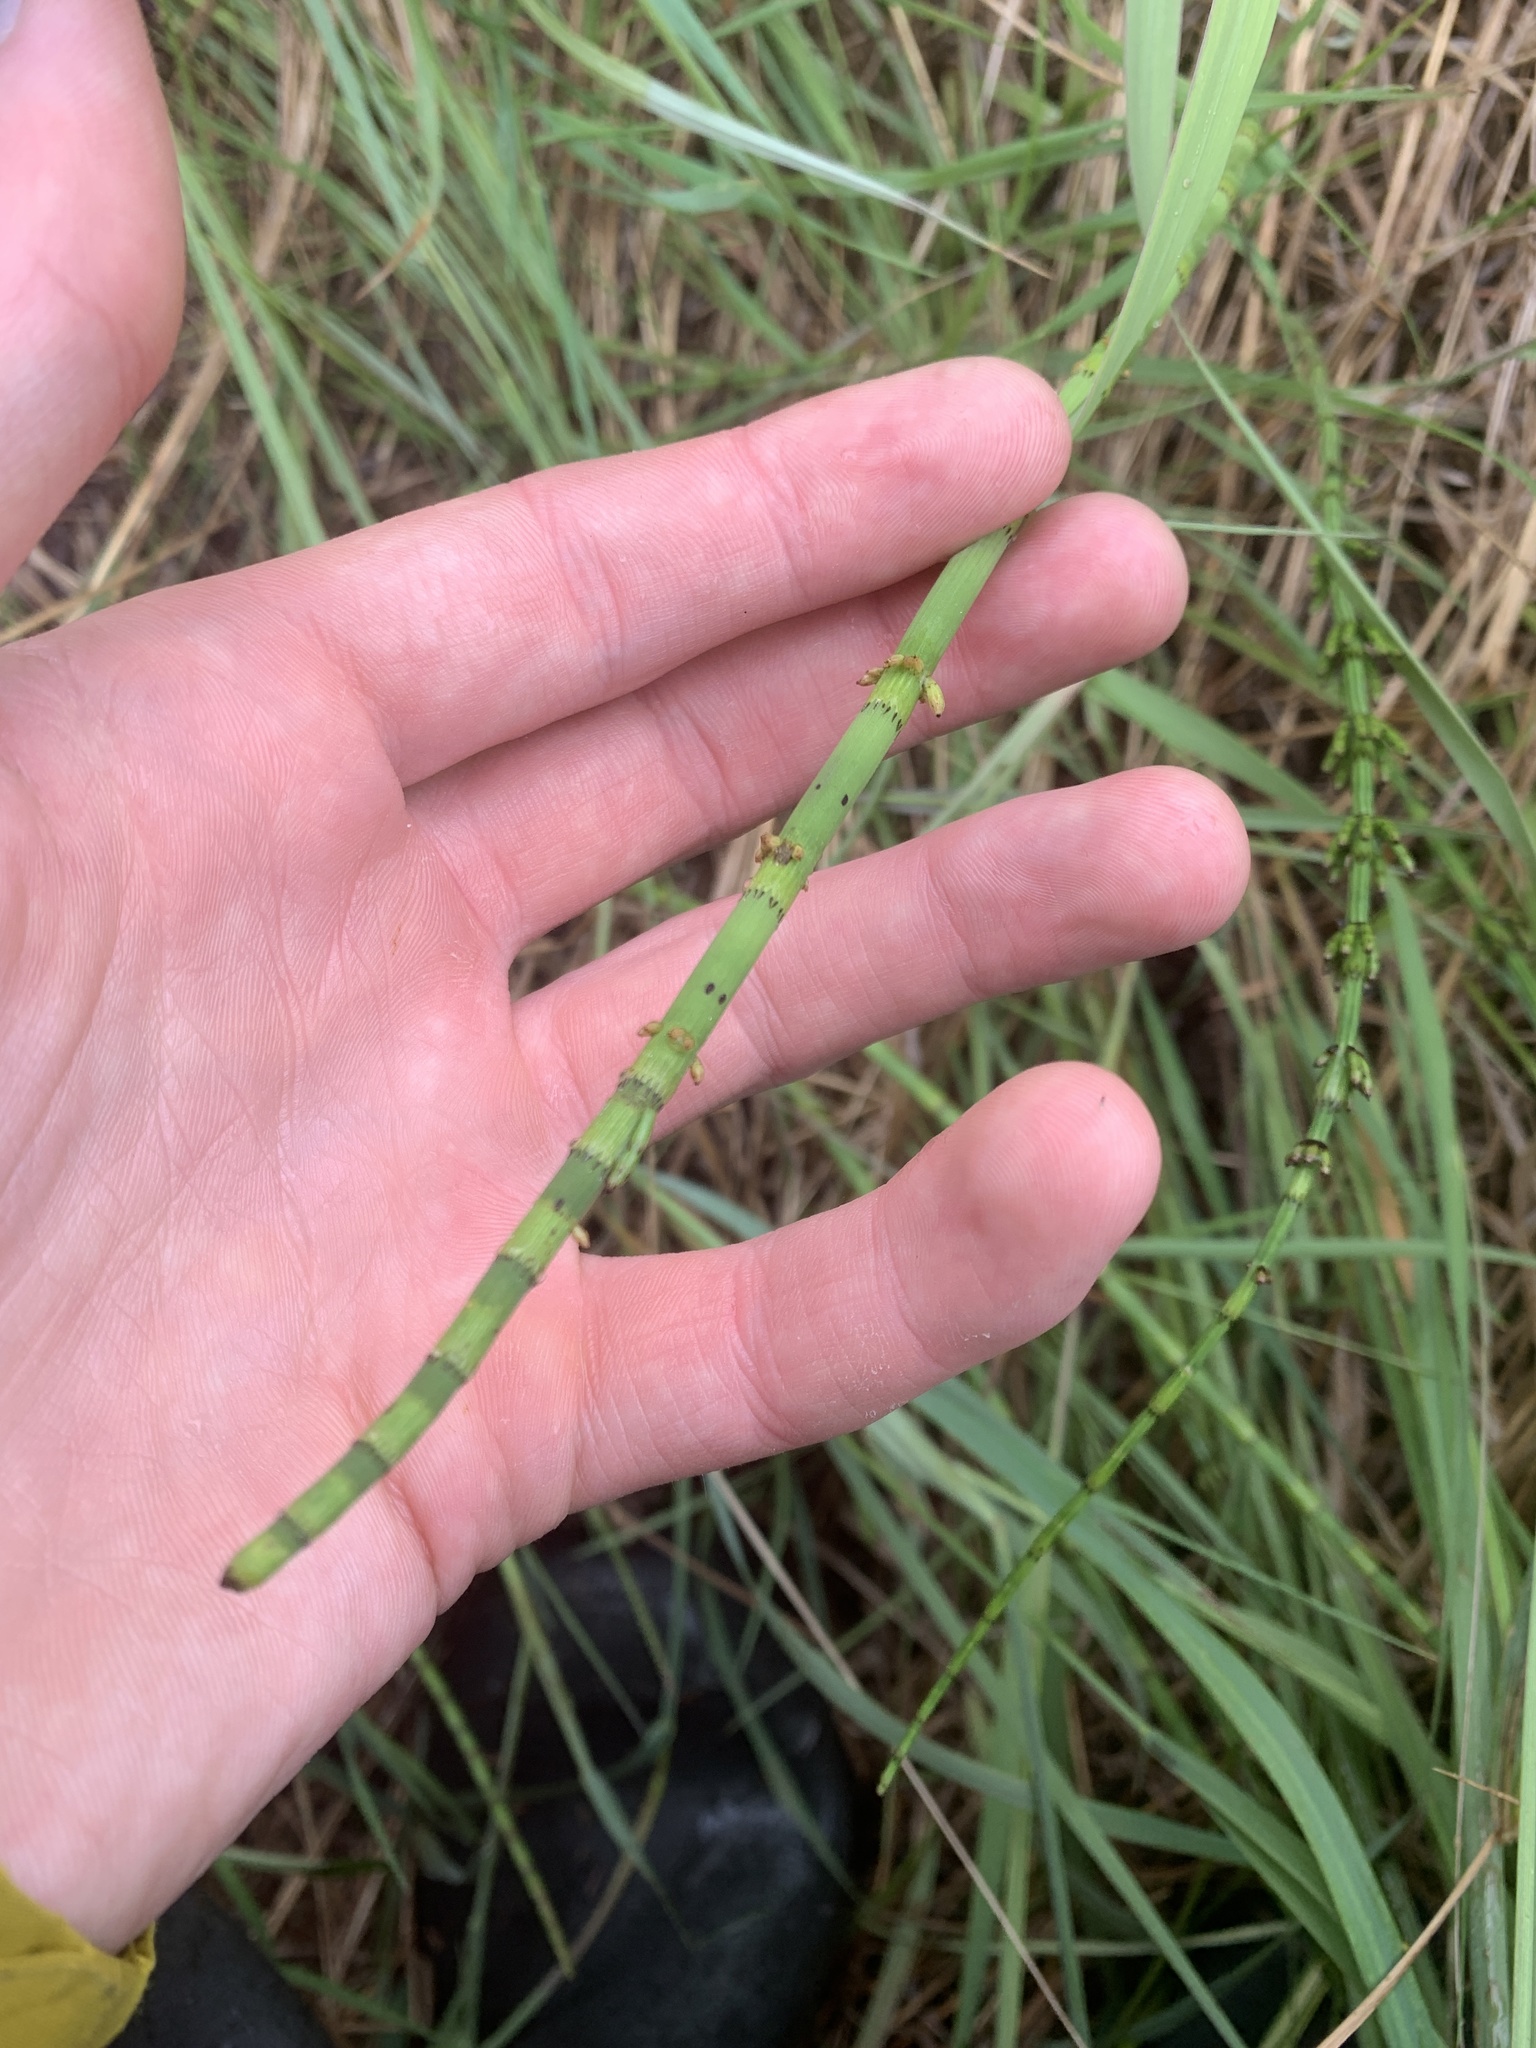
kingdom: Plantae
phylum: Tracheophyta
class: Polypodiopsida
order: Equisetales
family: Equisetaceae
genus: Equisetum
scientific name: Equisetum fluviatile
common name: Water horsetail
